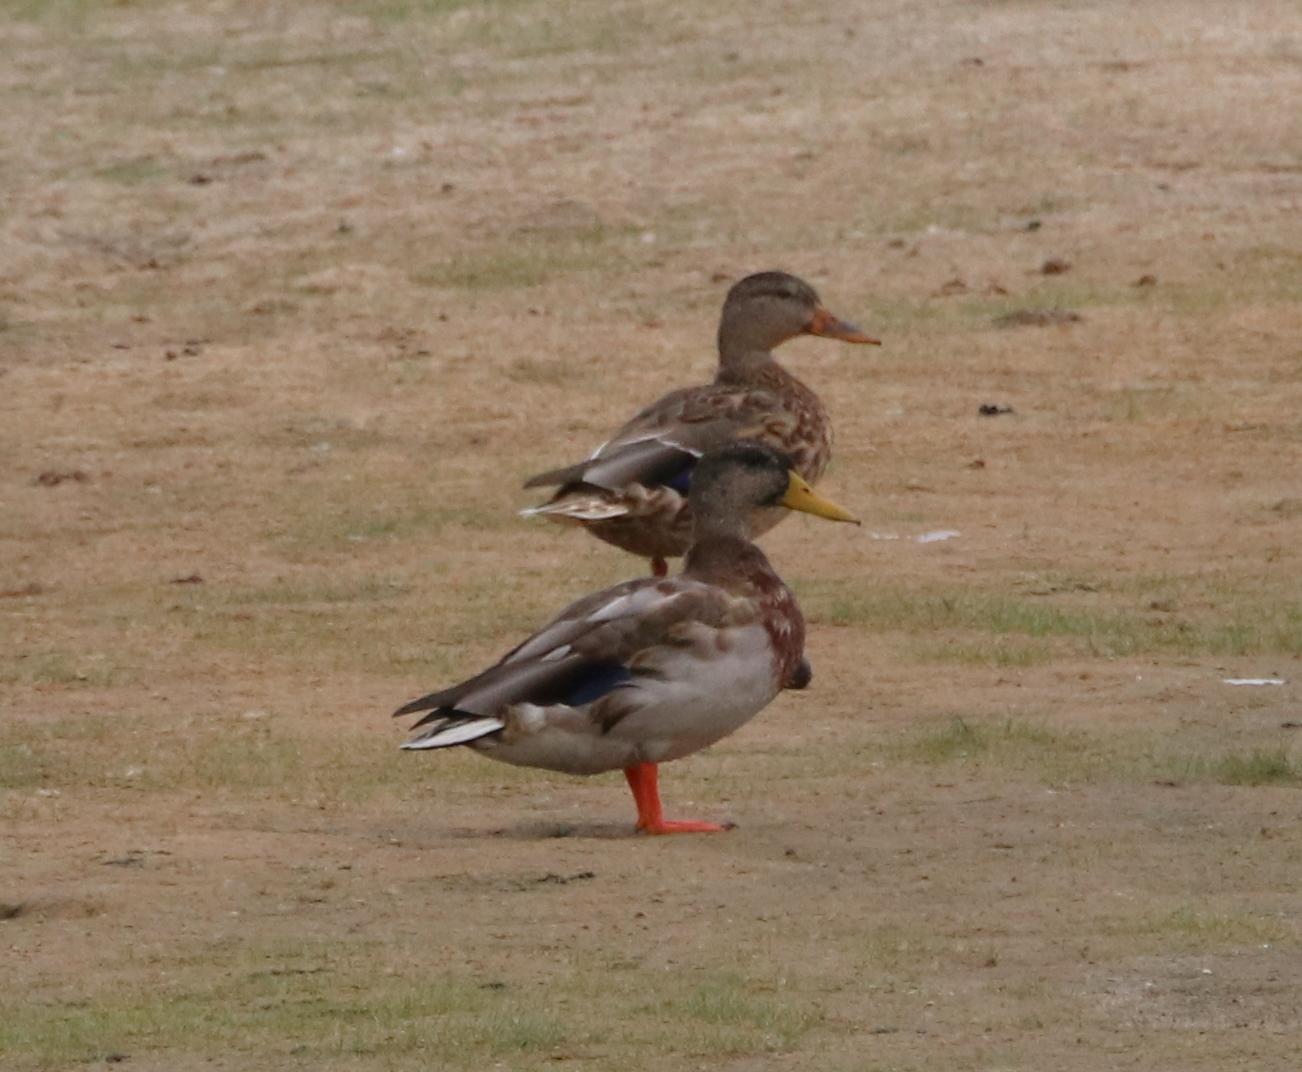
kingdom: Animalia
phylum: Chordata
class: Aves
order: Anseriformes
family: Anatidae
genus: Anas
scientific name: Anas platyrhynchos
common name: Mallard
